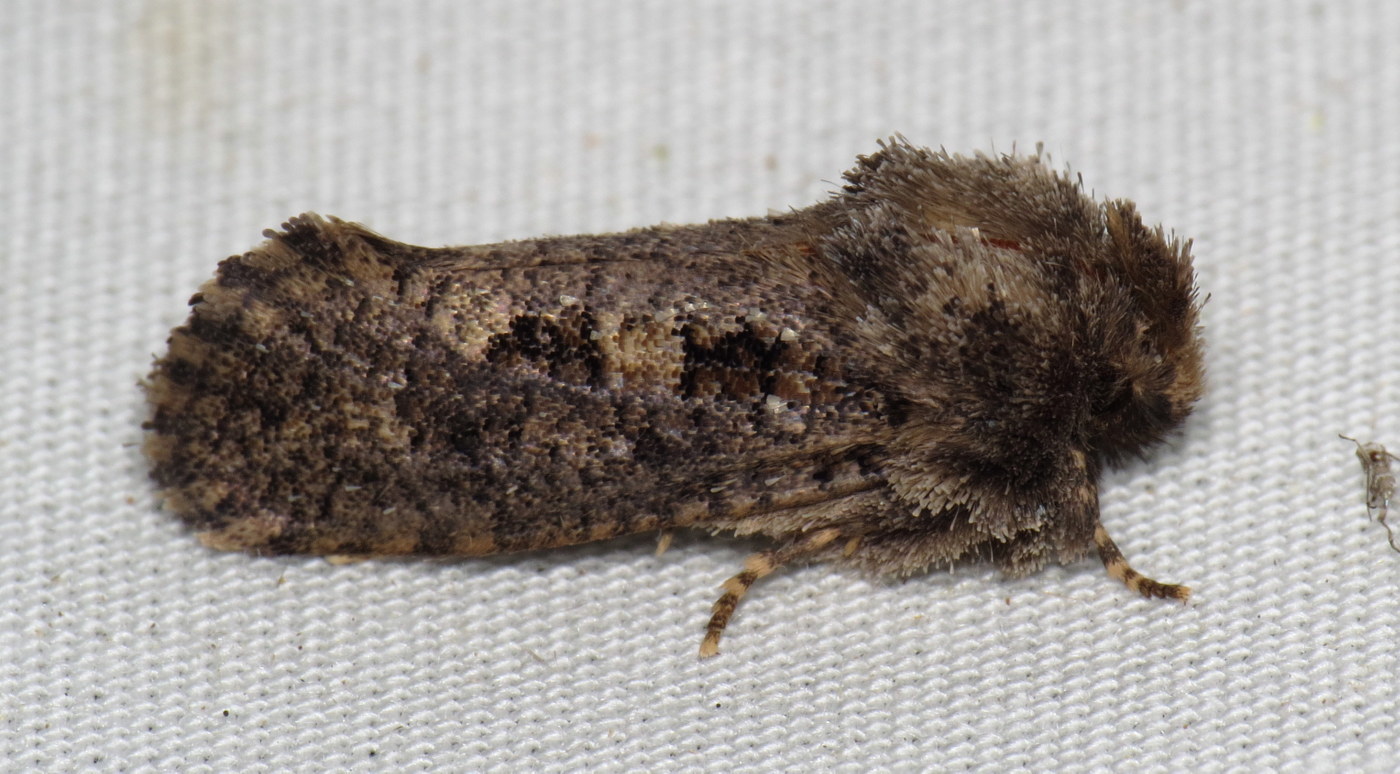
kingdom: Animalia
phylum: Arthropoda
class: Insecta
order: Lepidoptera
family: Tineidae
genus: Acrolophus
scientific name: Acrolophus arcanella
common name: Arcane grass tubeworm moth
